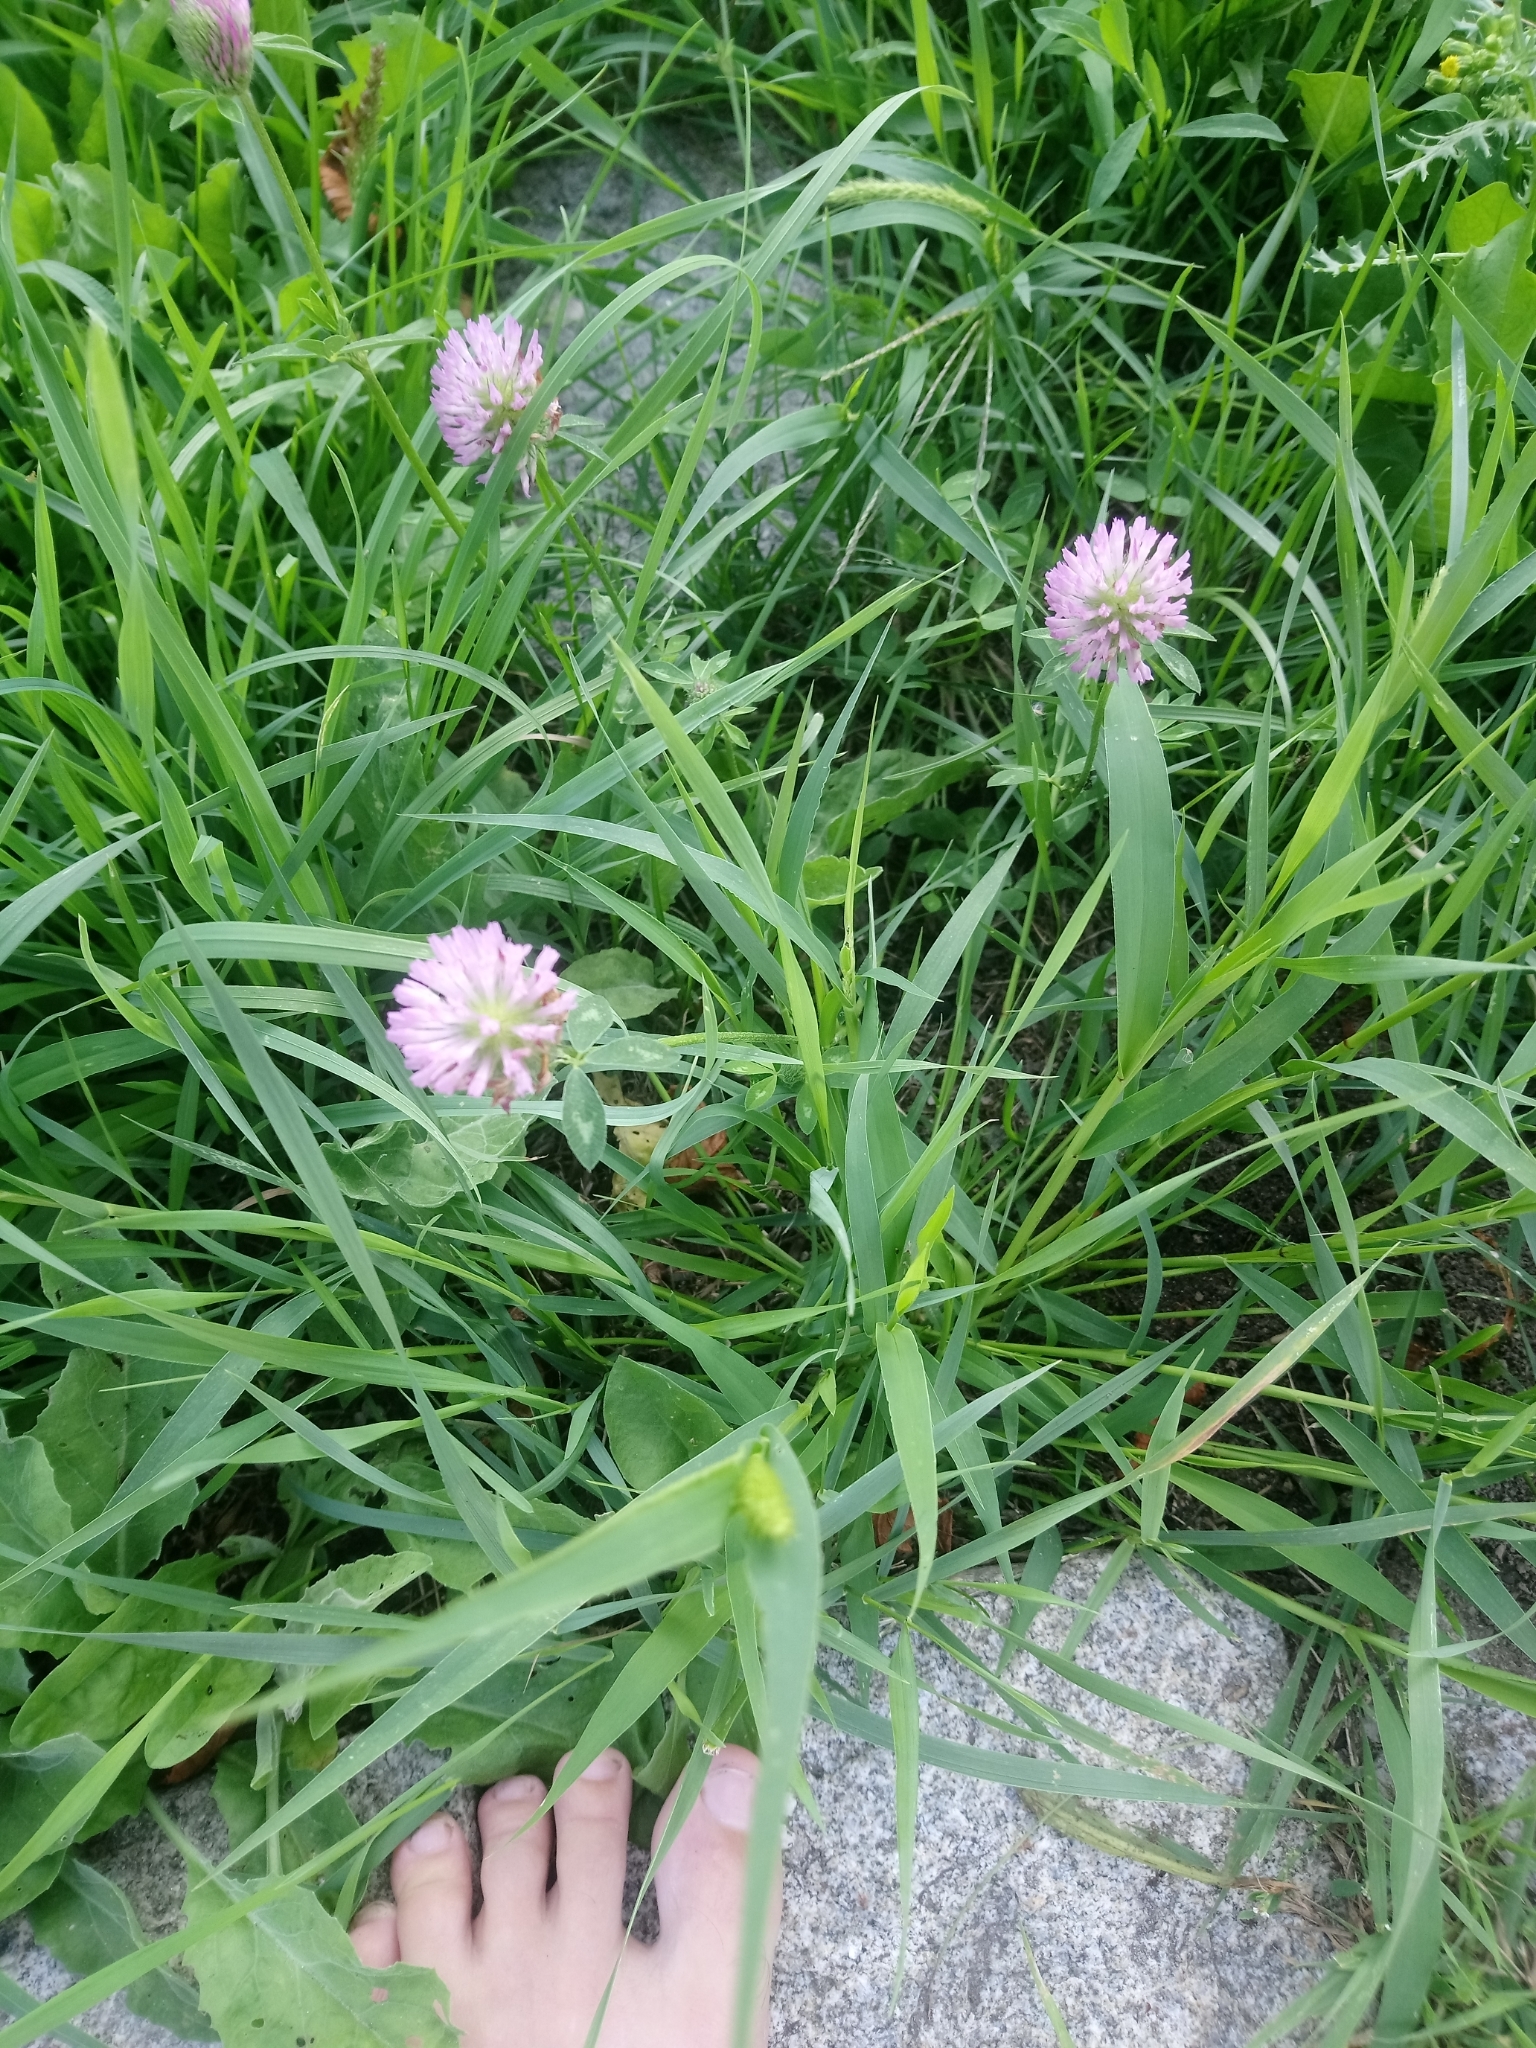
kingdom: Plantae
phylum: Tracheophyta
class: Magnoliopsida
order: Fabales
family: Fabaceae
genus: Trifolium
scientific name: Trifolium pratense
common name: Red clover
